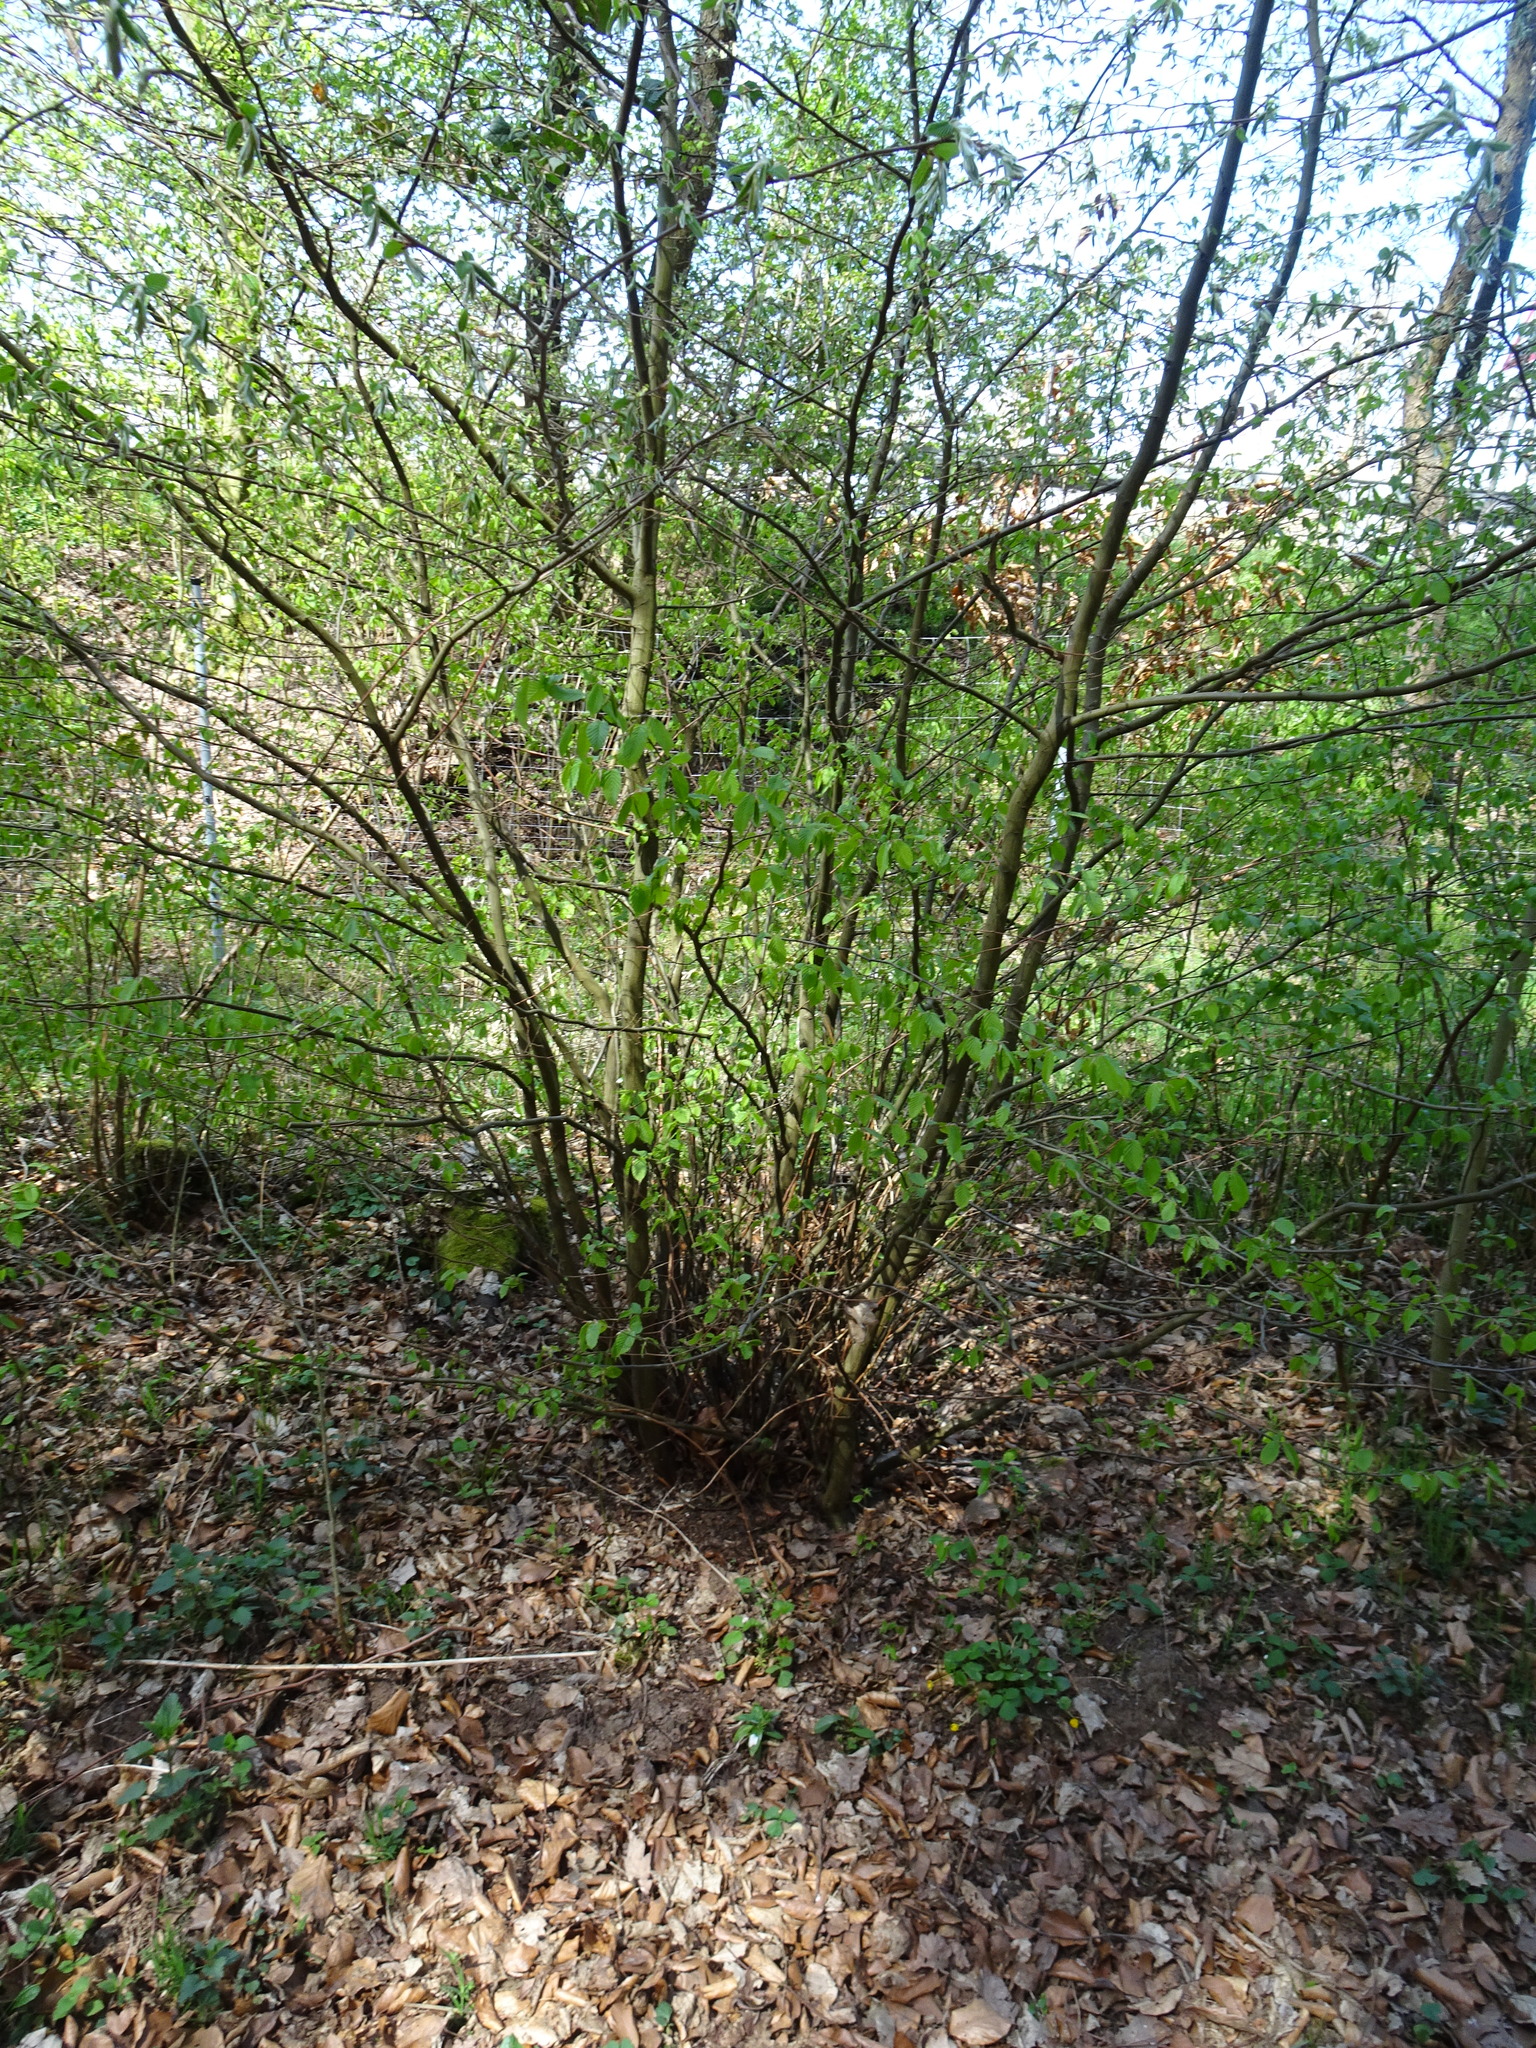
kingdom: Plantae
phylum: Tracheophyta
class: Magnoliopsida
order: Fagales
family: Betulaceae
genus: Corylus
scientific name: Corylus avellana
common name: European hazel
